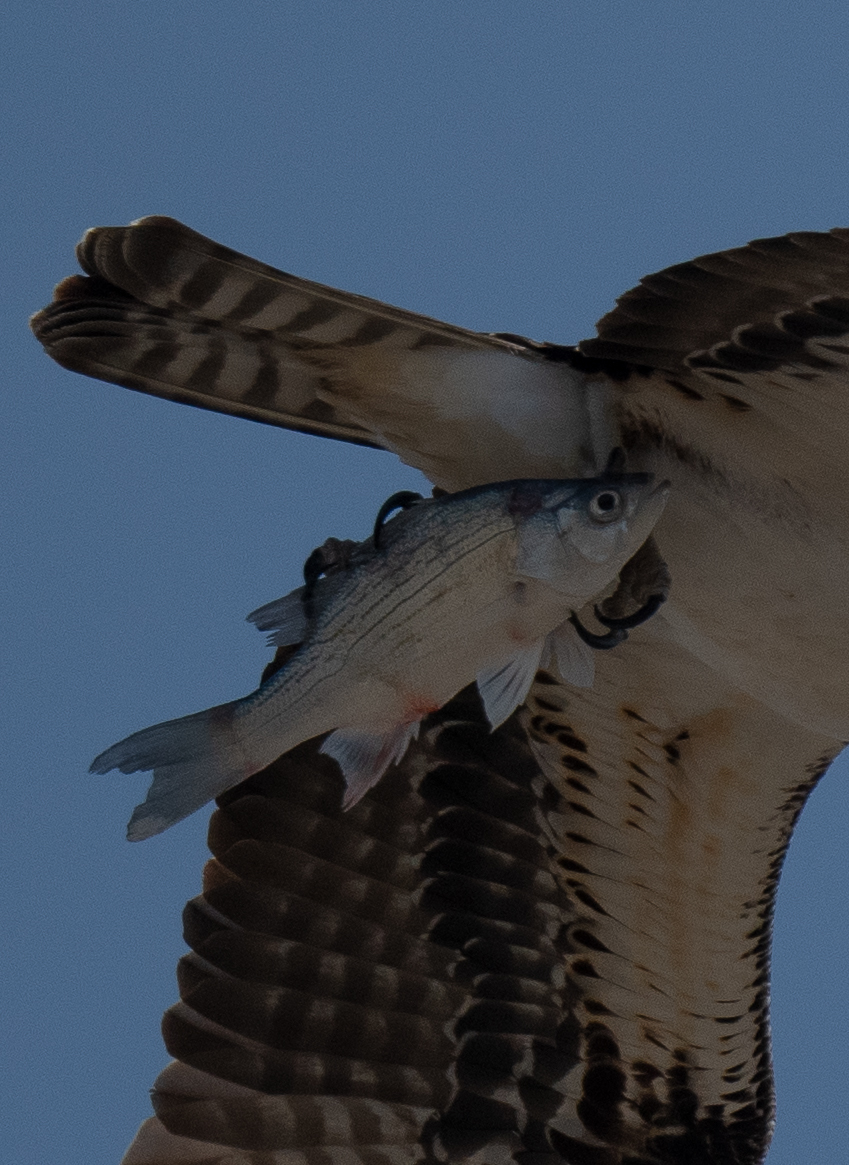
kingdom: Animalia
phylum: Chordata
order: Perciformes
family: Moronidae
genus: Morone
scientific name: Morone chrysops
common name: White bass
